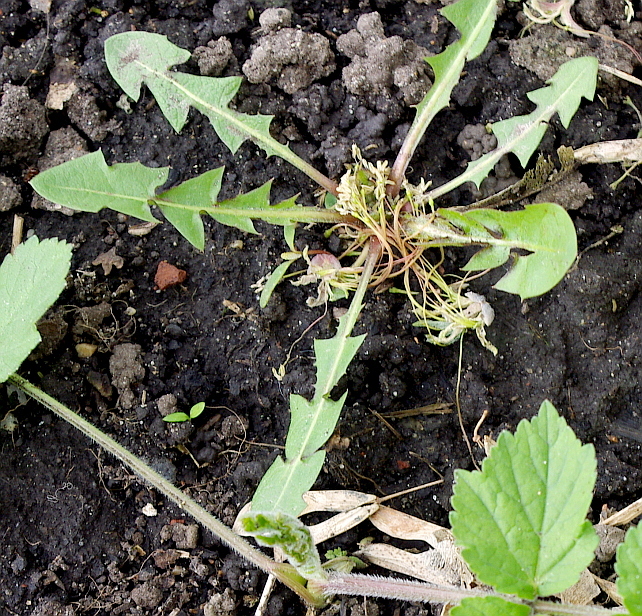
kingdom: Plantae
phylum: Tracheophyta
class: Magnoliopsida
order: Asterales
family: Asteraceae
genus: Taraxacum
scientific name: Taraxacum officinale
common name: Common dandelion
